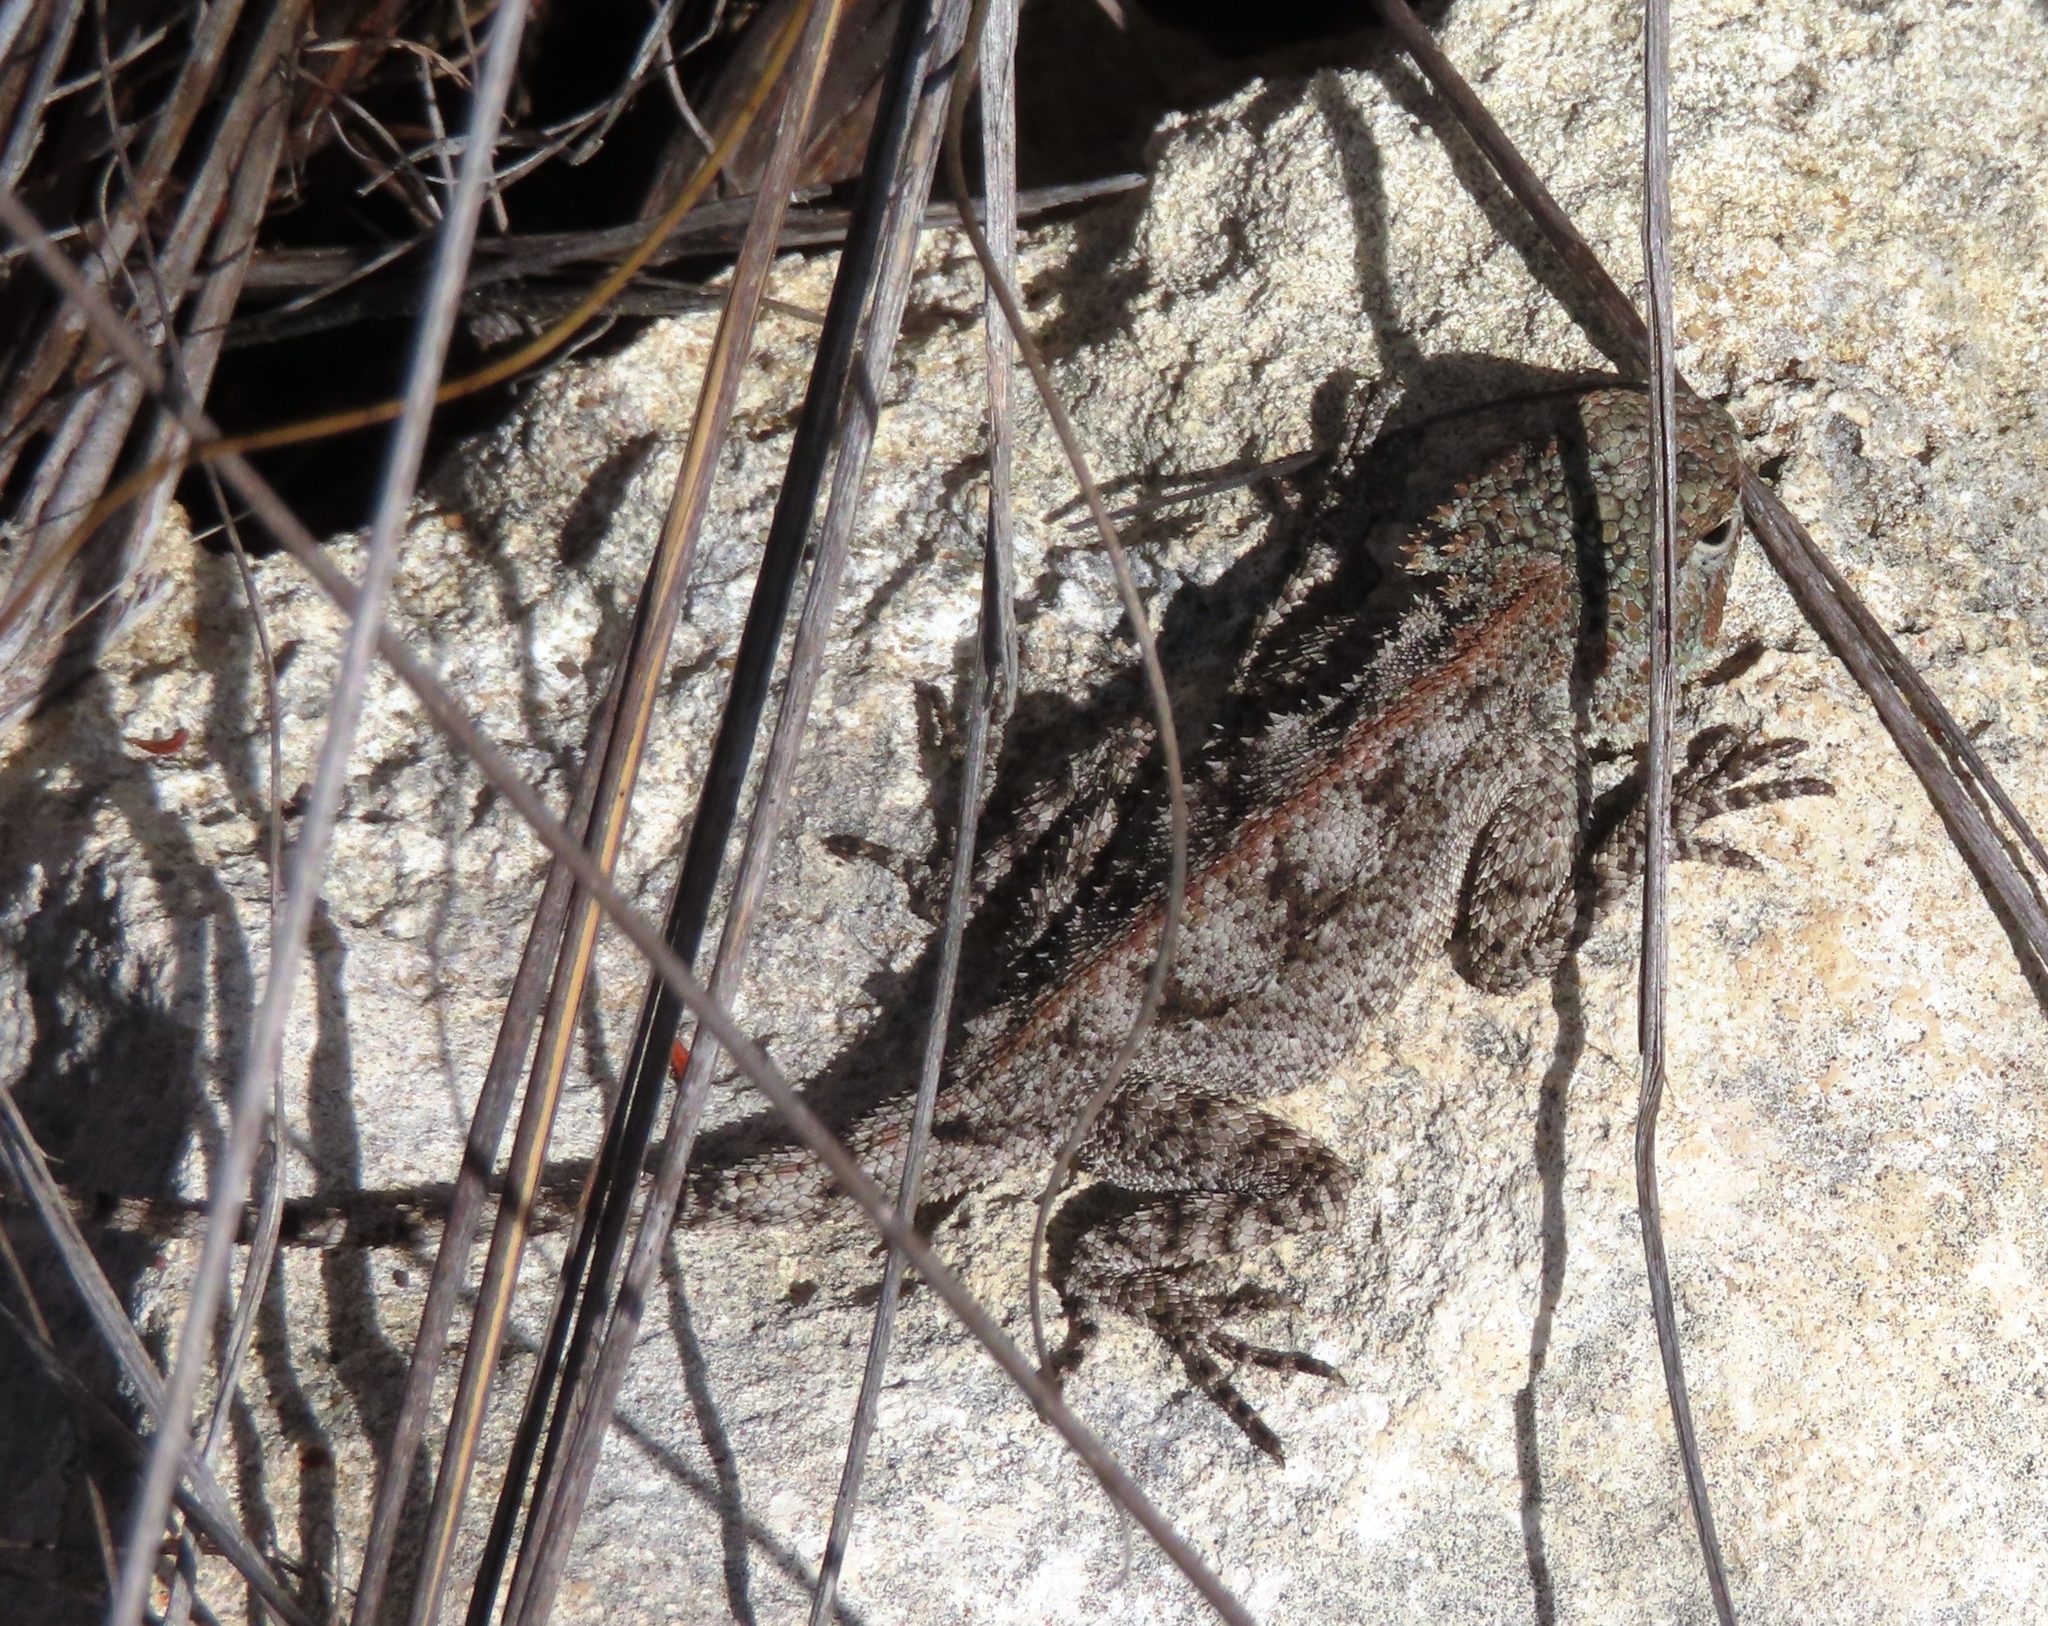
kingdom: Animalia
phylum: Chordata
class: Squamata
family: Agamidae
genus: Agama
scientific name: Agama atra
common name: Southern african rock agama
